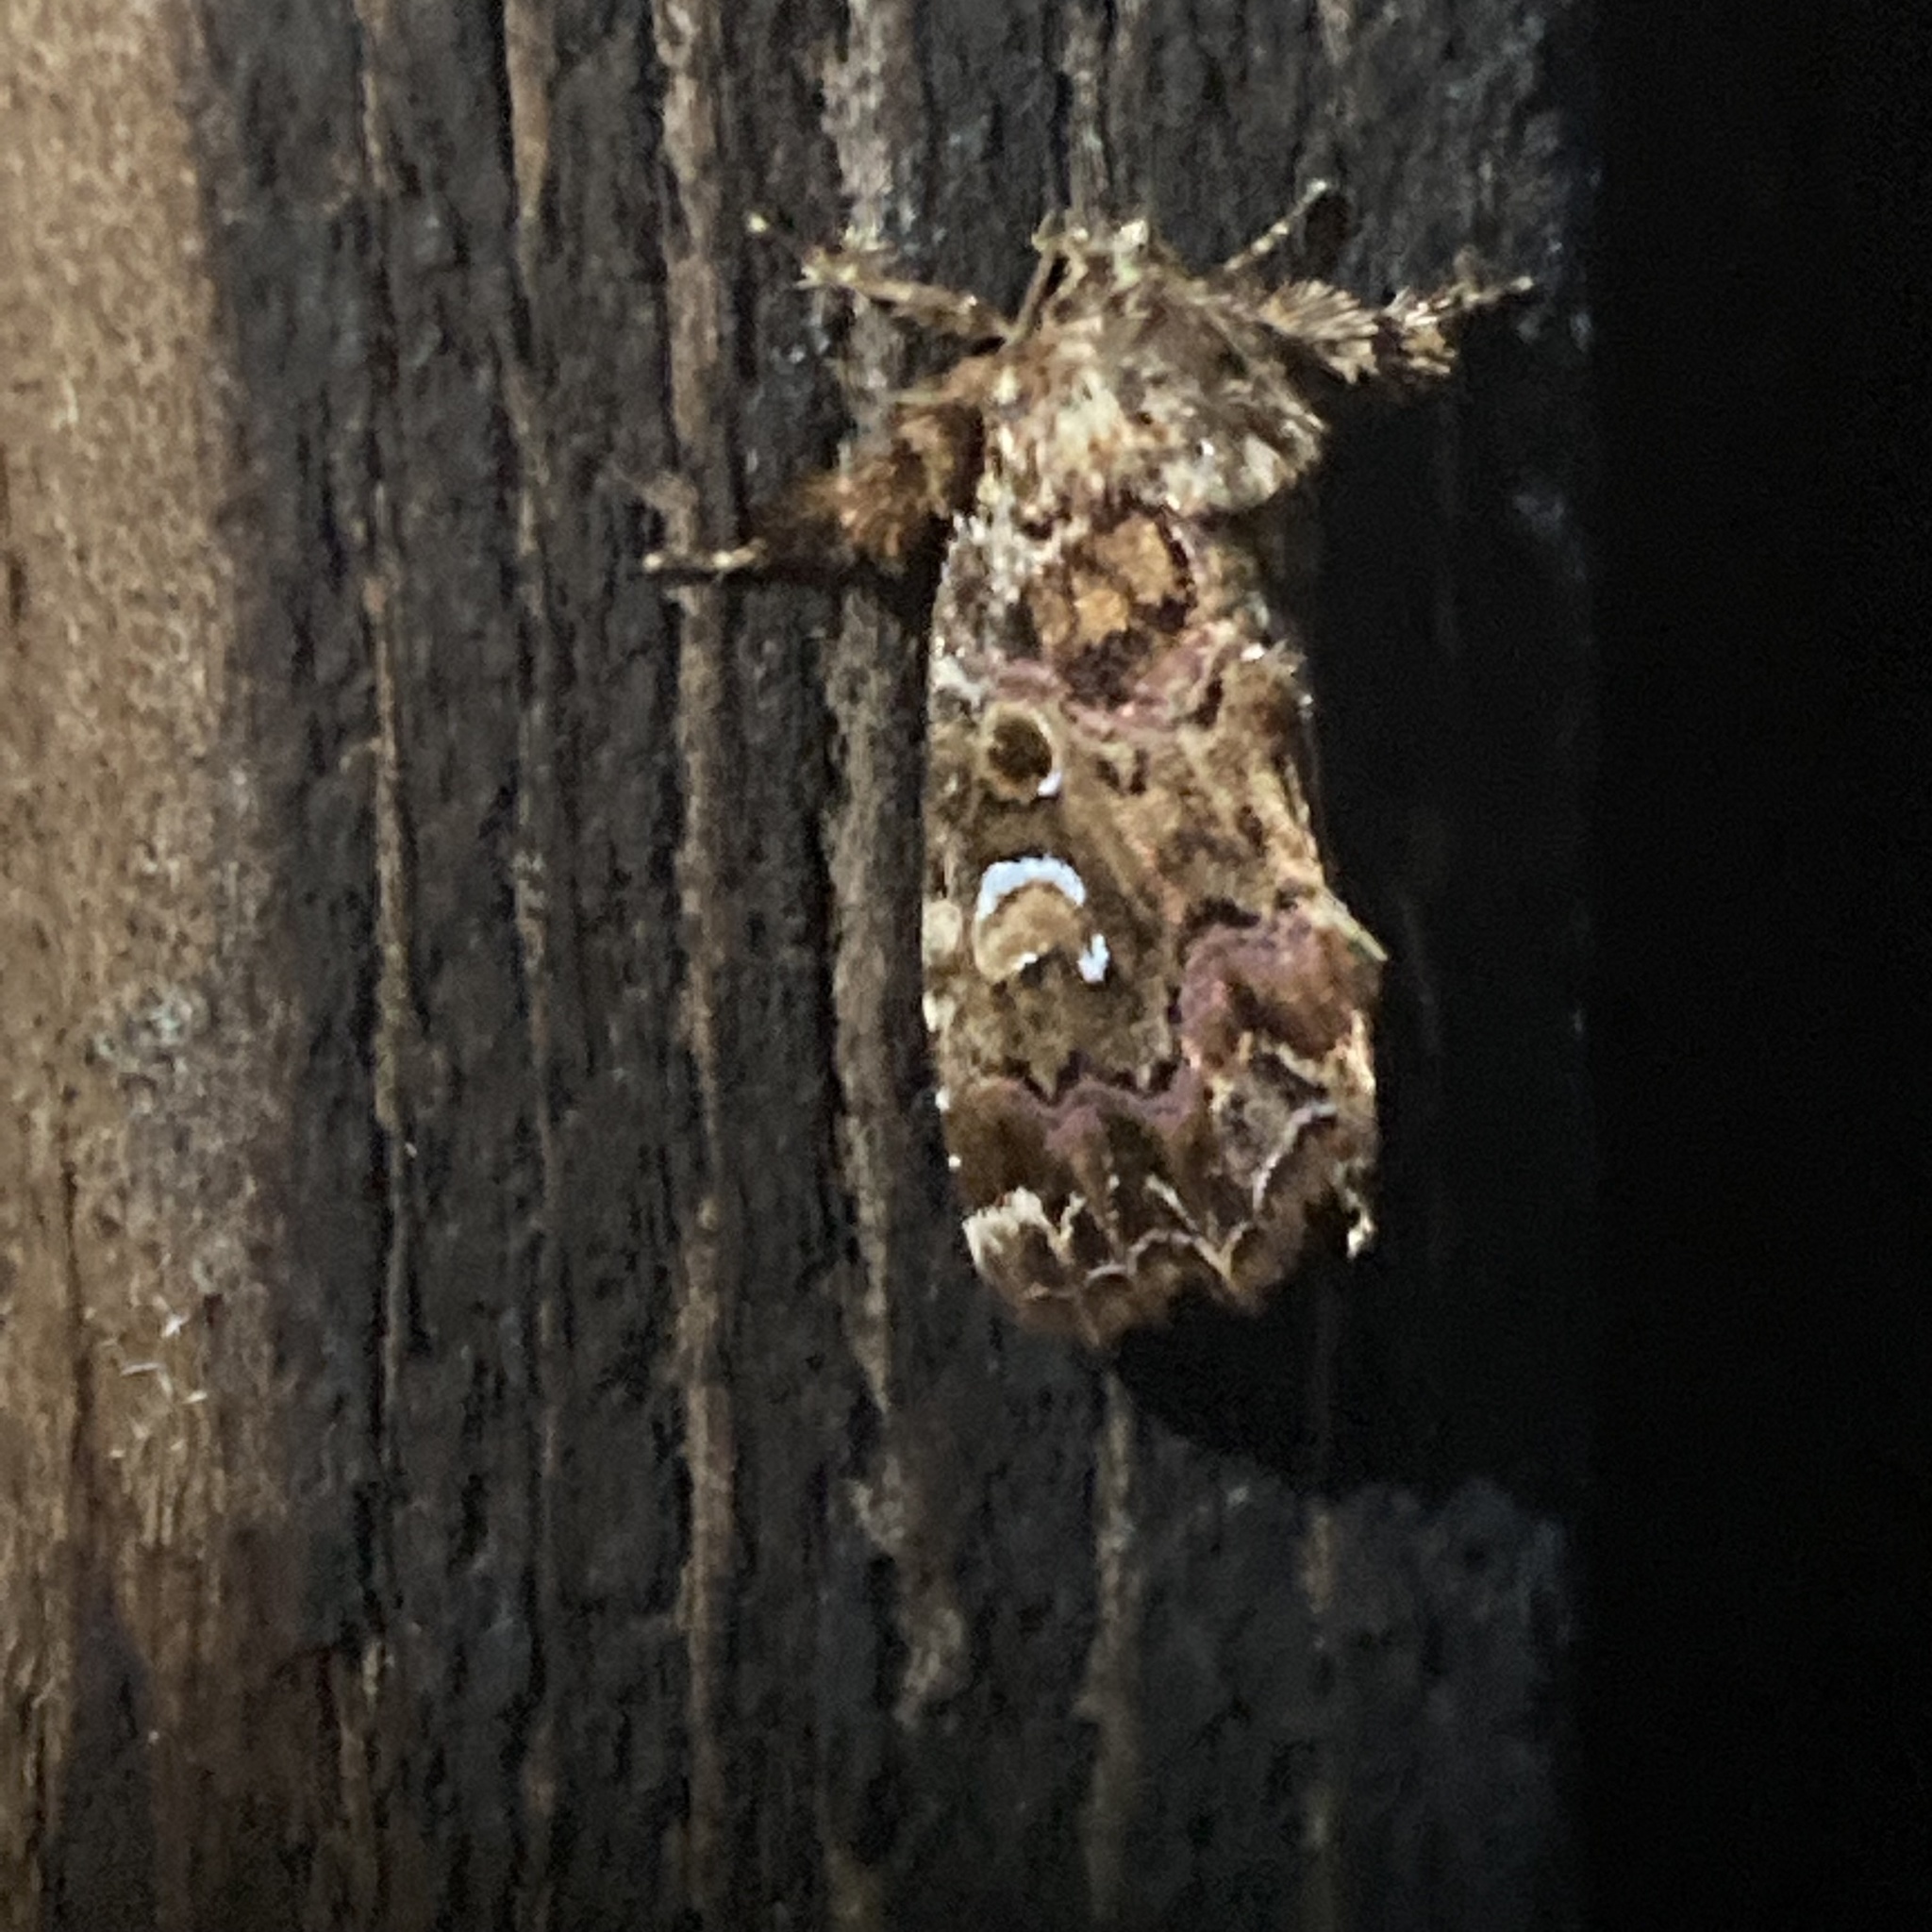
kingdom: Animalia
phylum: Arthropoda
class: Insecta
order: Lepidoptera
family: Noctuidae
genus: Callopistria
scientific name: Callopistria mollissima
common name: Pink-shaded fern moth
